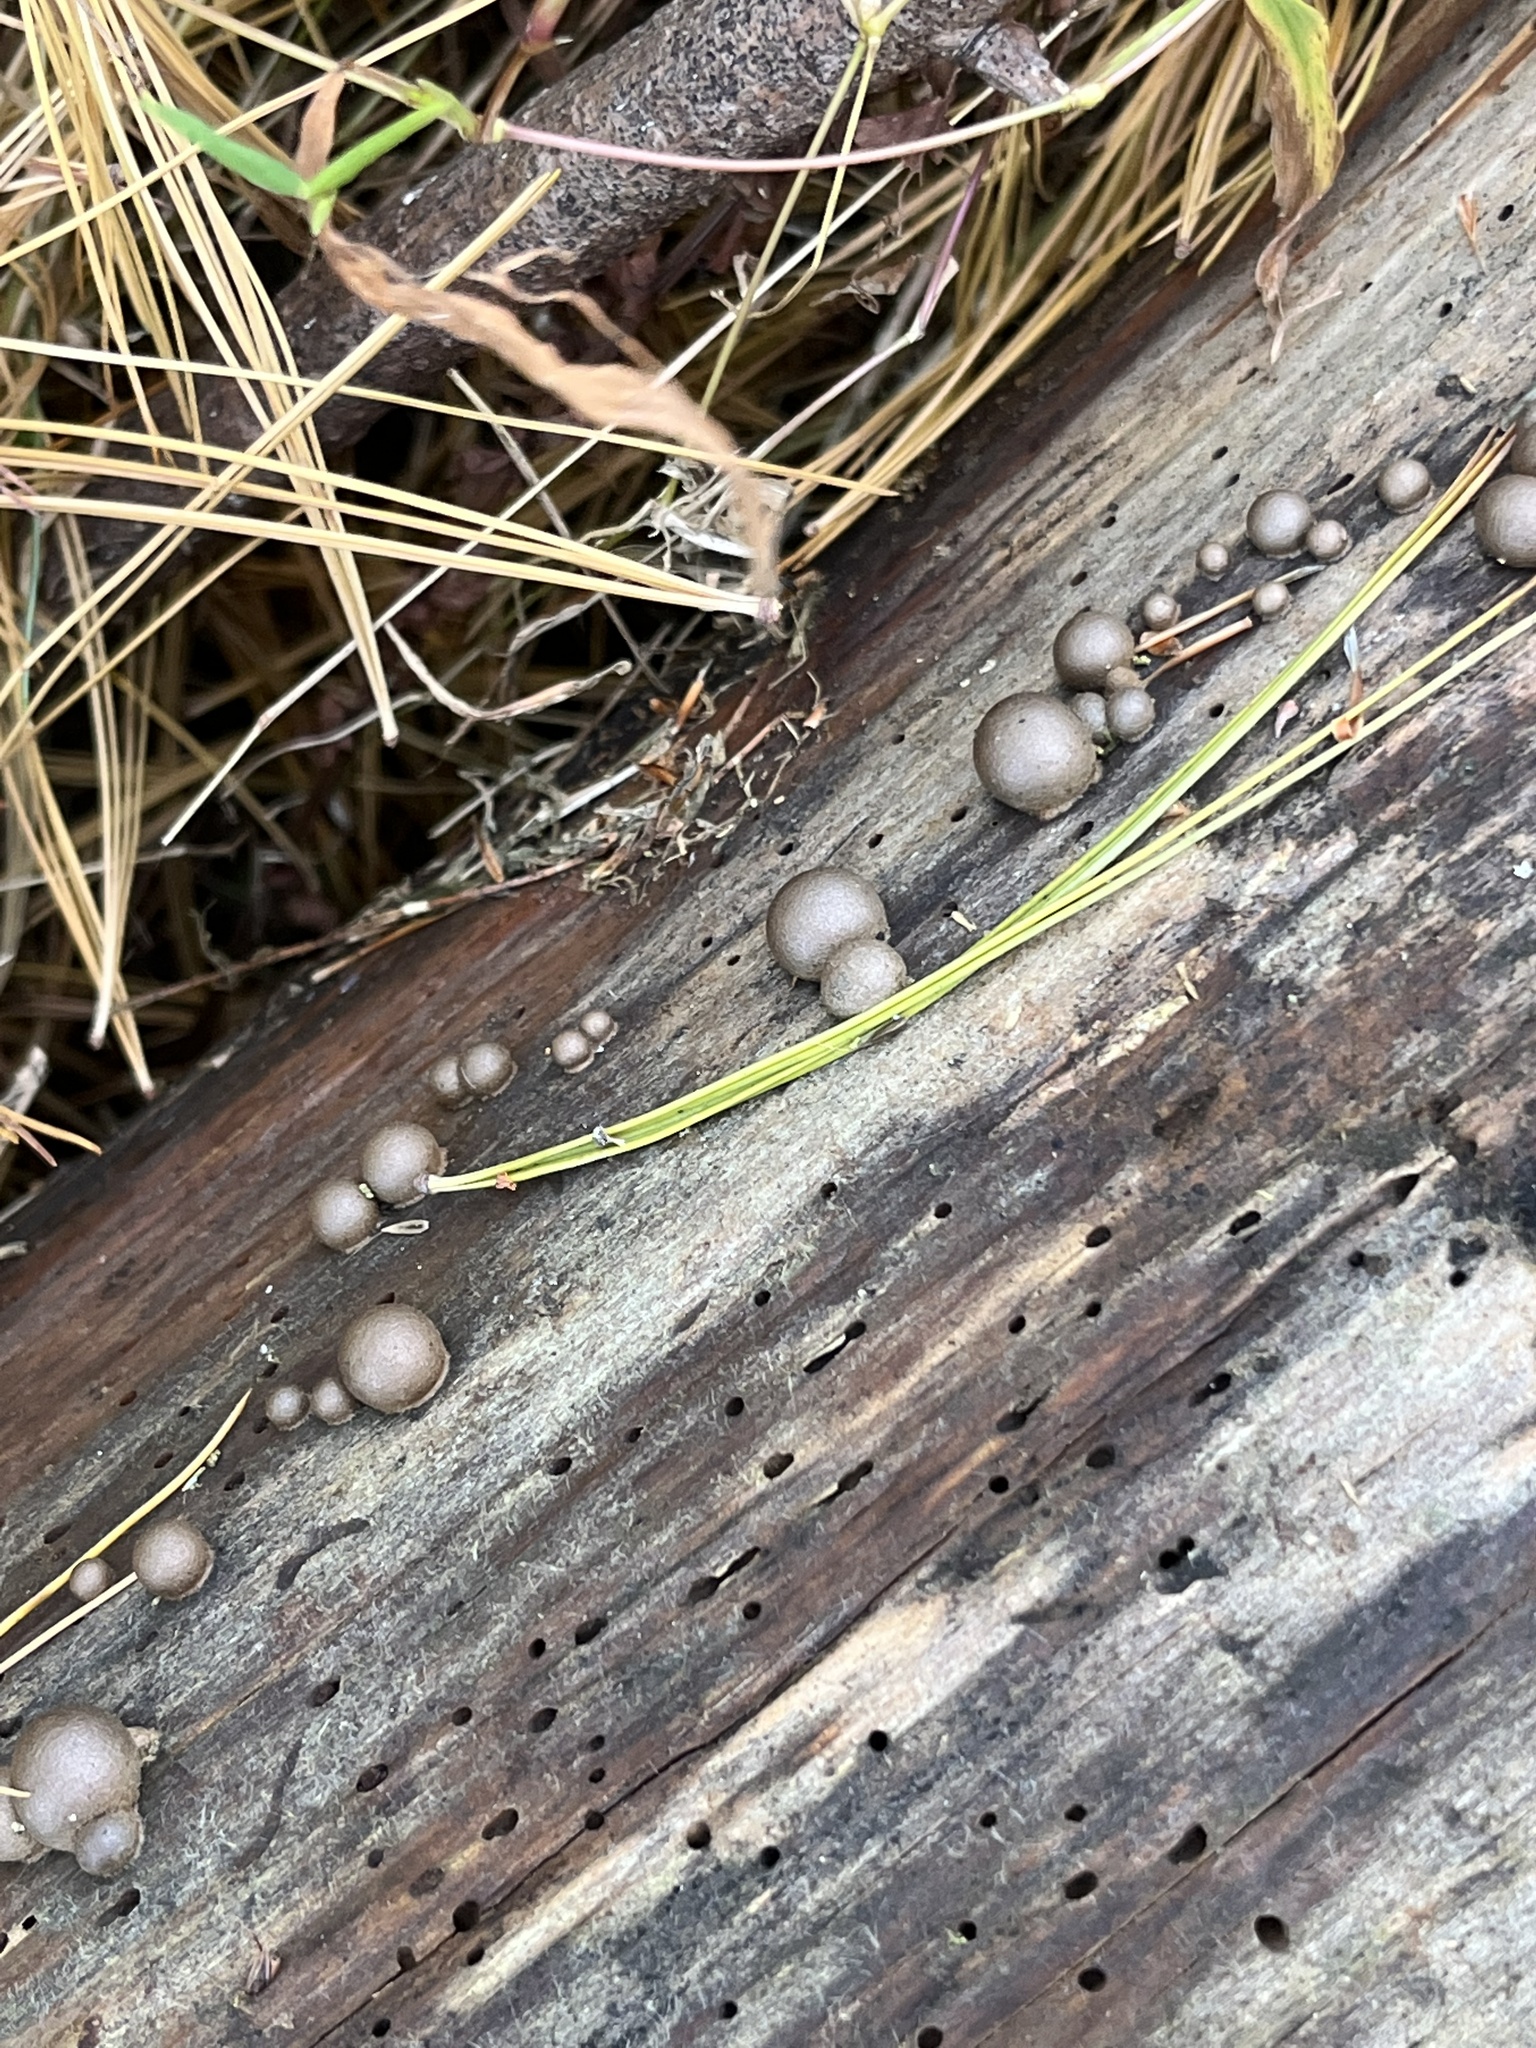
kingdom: Protozoa
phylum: Mycetozoa
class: Myxomycetes
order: Cribrariales
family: Tubiferaceae
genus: Lycogala
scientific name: Lycogala epidendrum
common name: Wolf's milk
